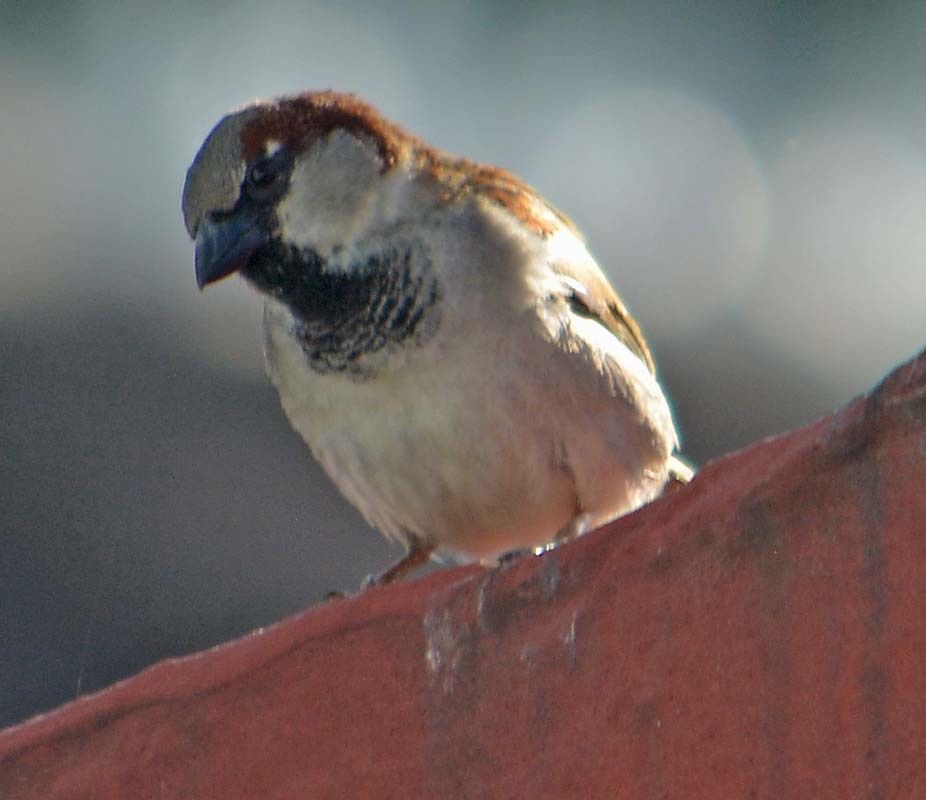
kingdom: Animalia
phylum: Chordata
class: Aves
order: Passeriformes
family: Passeridae
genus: Passer
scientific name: Passer domesticus
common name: House sparrow
